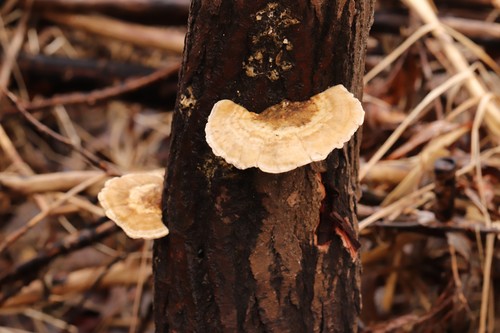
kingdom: Fungi
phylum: Basidiomycota
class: Agaricomycetes
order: Polyporales
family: Polyporaceae
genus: Trametes
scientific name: Trametes ochracea
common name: Ochre bracket
